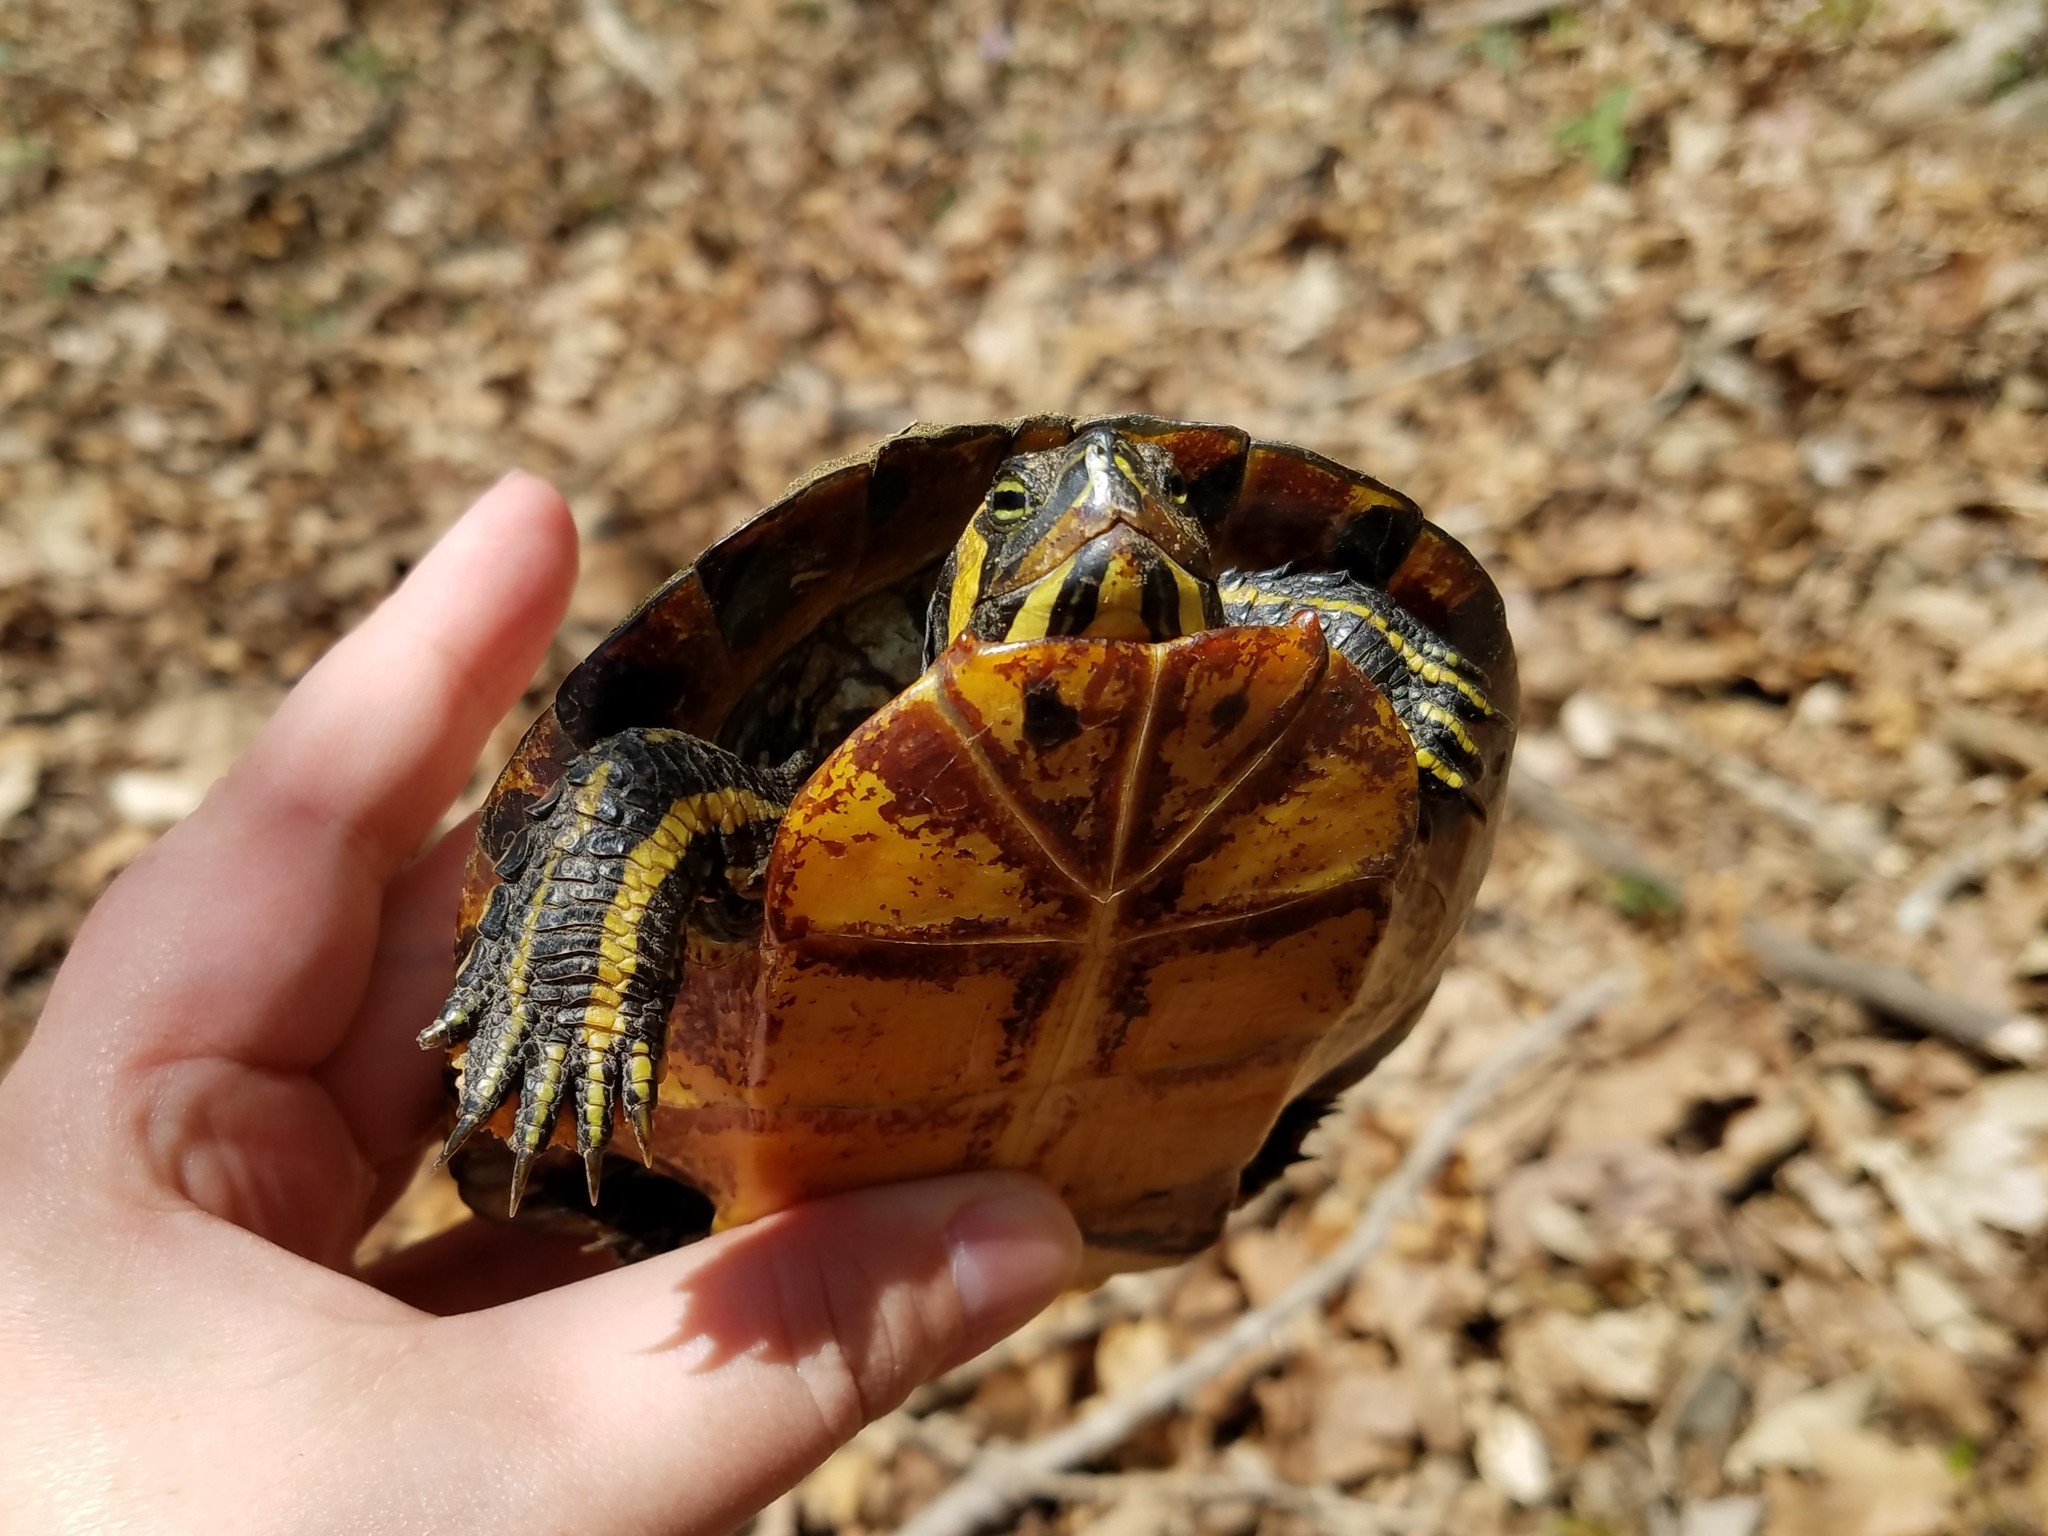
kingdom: Animalia
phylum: Chordata
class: Testudines
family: Emydidae
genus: Trachemys
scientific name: Trachemys scripta
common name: Slider
